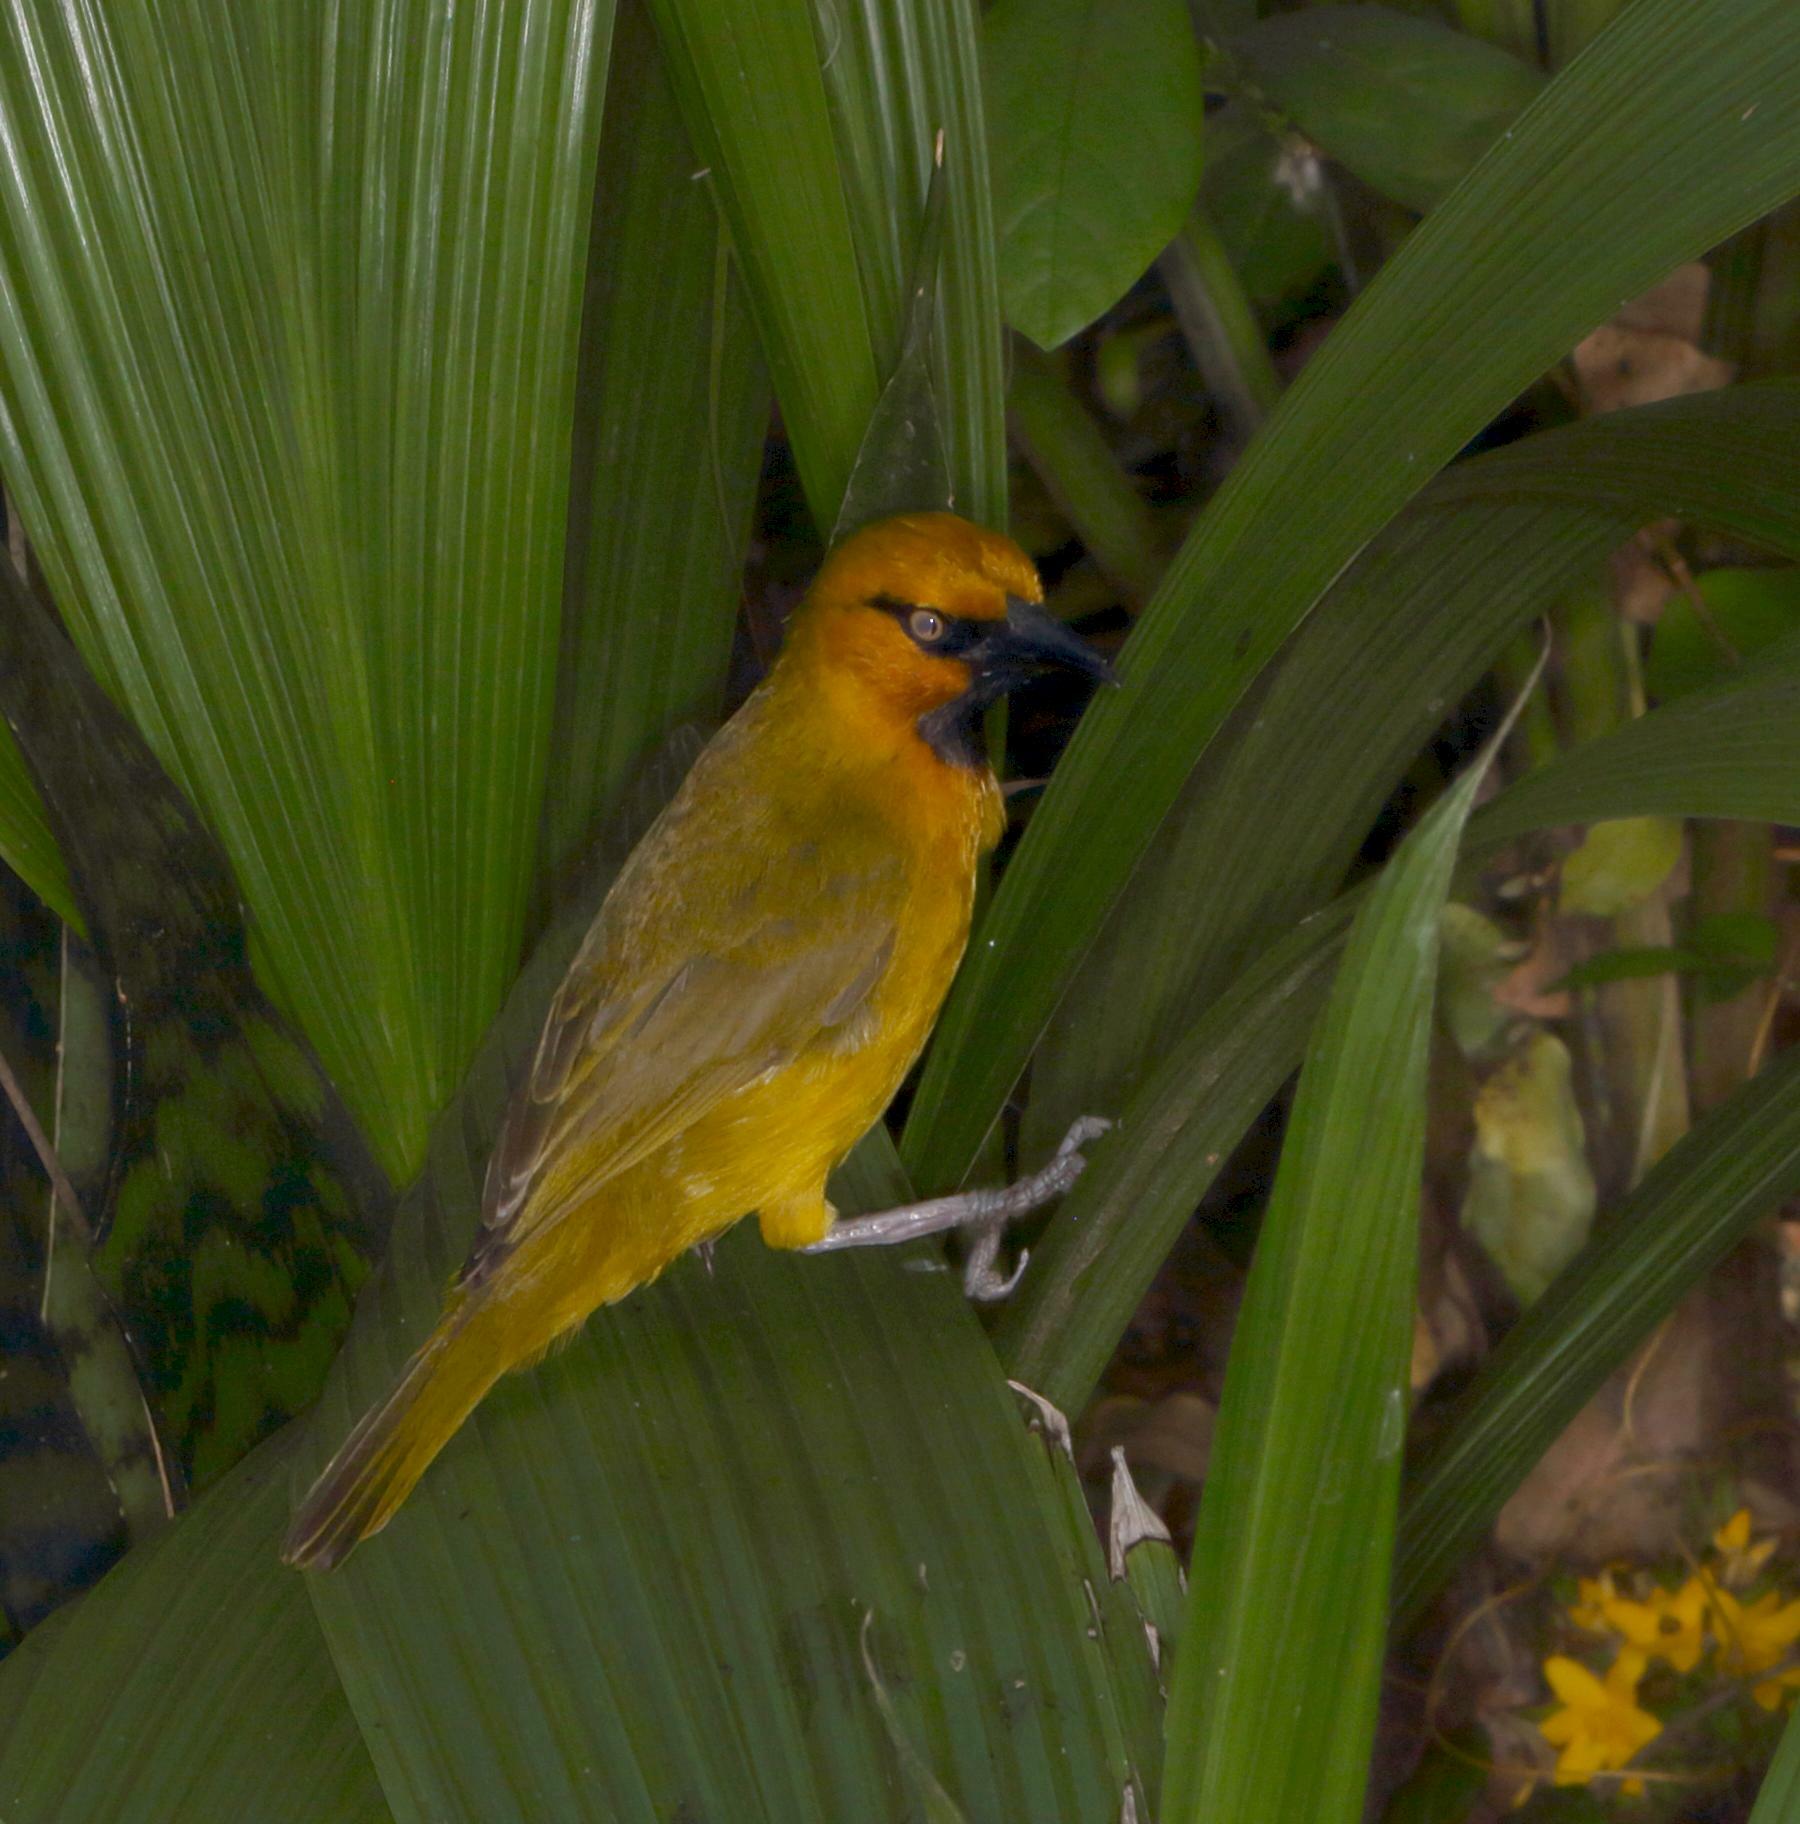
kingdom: Animalia
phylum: Chordata
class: Aves
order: Passeriformes
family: Ploceidae
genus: Ploceus
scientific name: Ploceus ocularis
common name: Spectacled weaver
